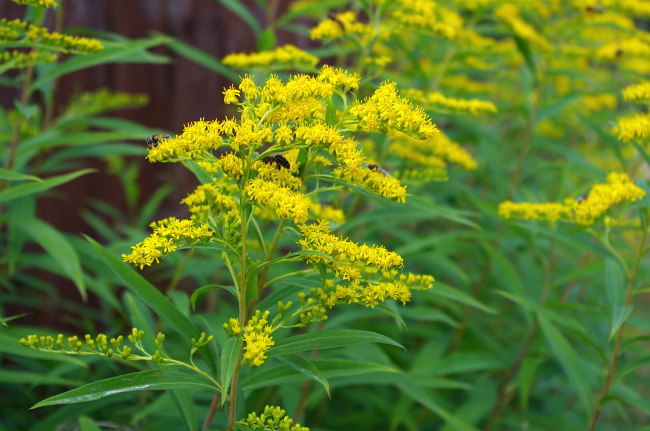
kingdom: Plantae
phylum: Tracheophyta
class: Magnoliopsida
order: Asterales
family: Asteraceae
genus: Solidago
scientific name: Solidago gigantea
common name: Giant goldenrod
